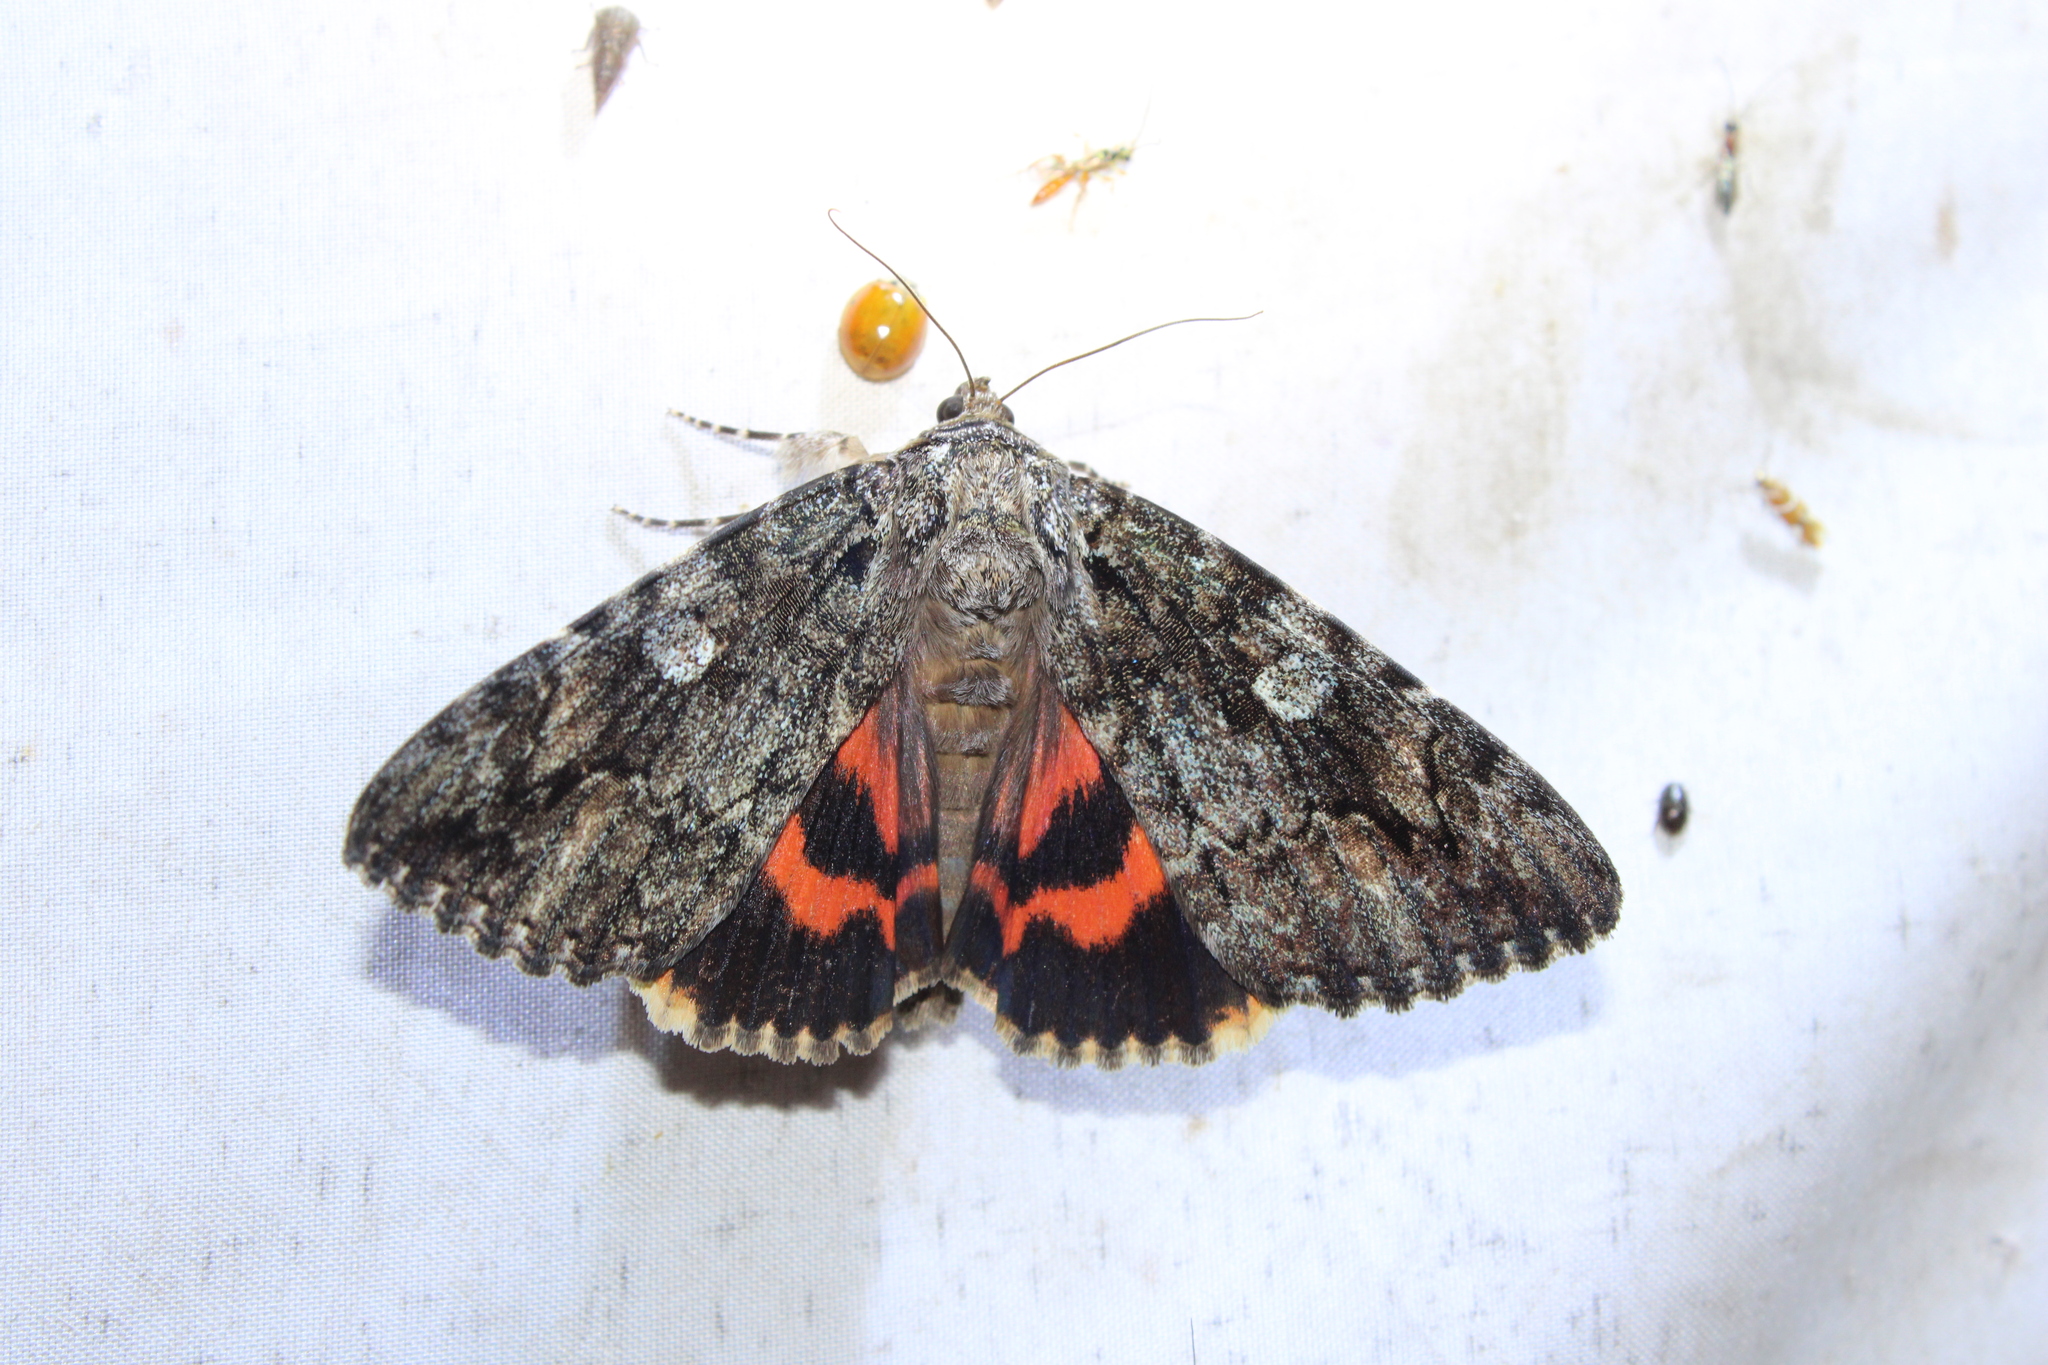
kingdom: Animalia
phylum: Arthropoda
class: Insecta
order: Lepidoptera
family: Erebidae
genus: Catocala
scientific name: Catocala ilia
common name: Ilia underwing
